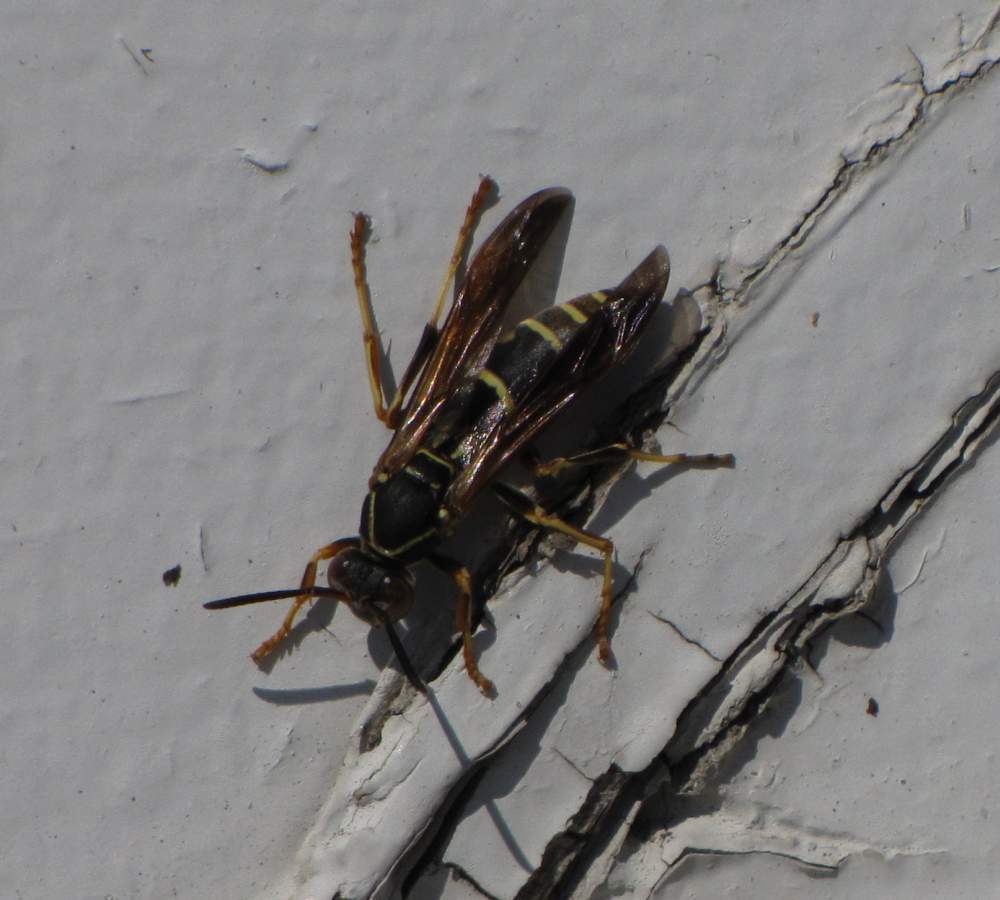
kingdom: Animalia
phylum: Arthropoda
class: Insecta
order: Hymenoptera
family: Eumenidae
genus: Polistes
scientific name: Polistes fuscatus
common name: Dark paper wasp
